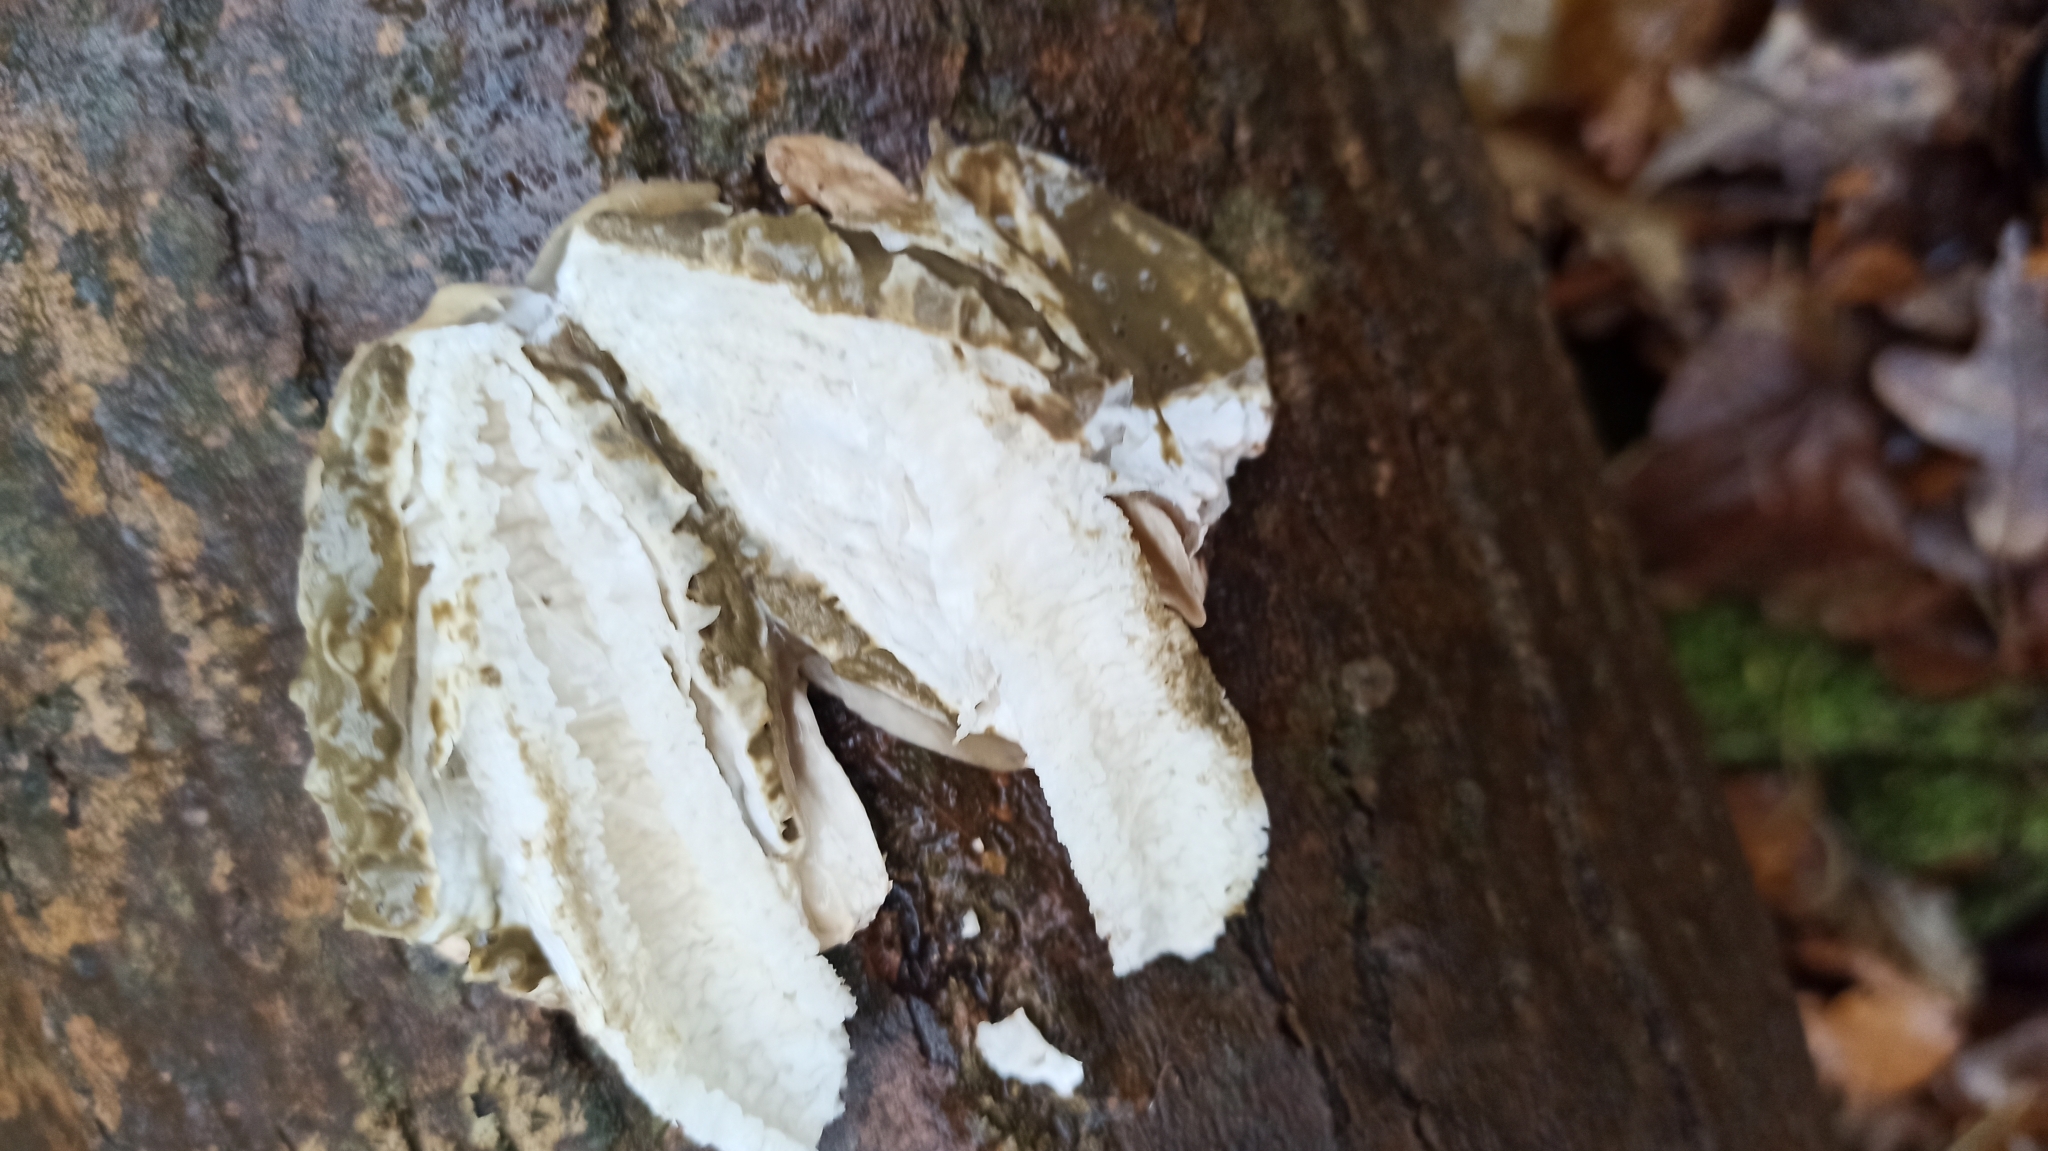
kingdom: Fungi
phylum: Basidiomycota
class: Agaricomycetes
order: Phallales
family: Phallaceae
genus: Phallus
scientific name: Phallus impudicus
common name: Common stinkhorn
